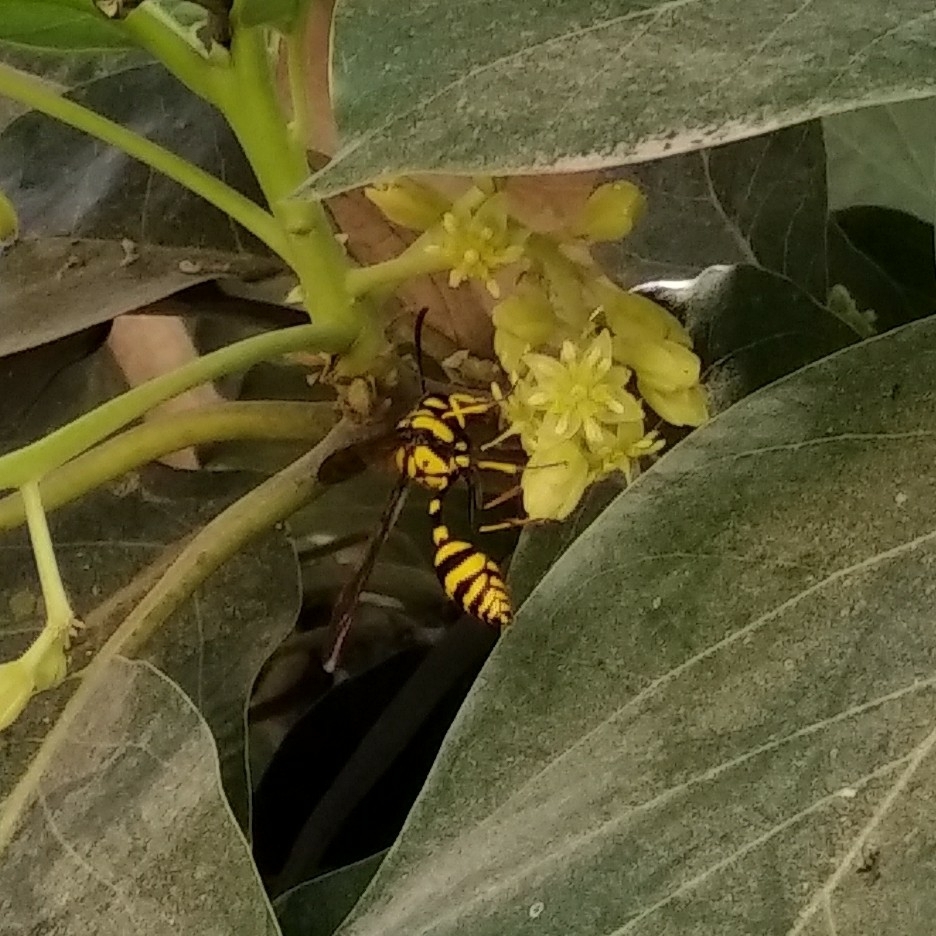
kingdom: Animalia
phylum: Arthropoda
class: Insecta
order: Hymenoptera
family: Eumenidae
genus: Phimenes
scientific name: Phimenes flavopictus
